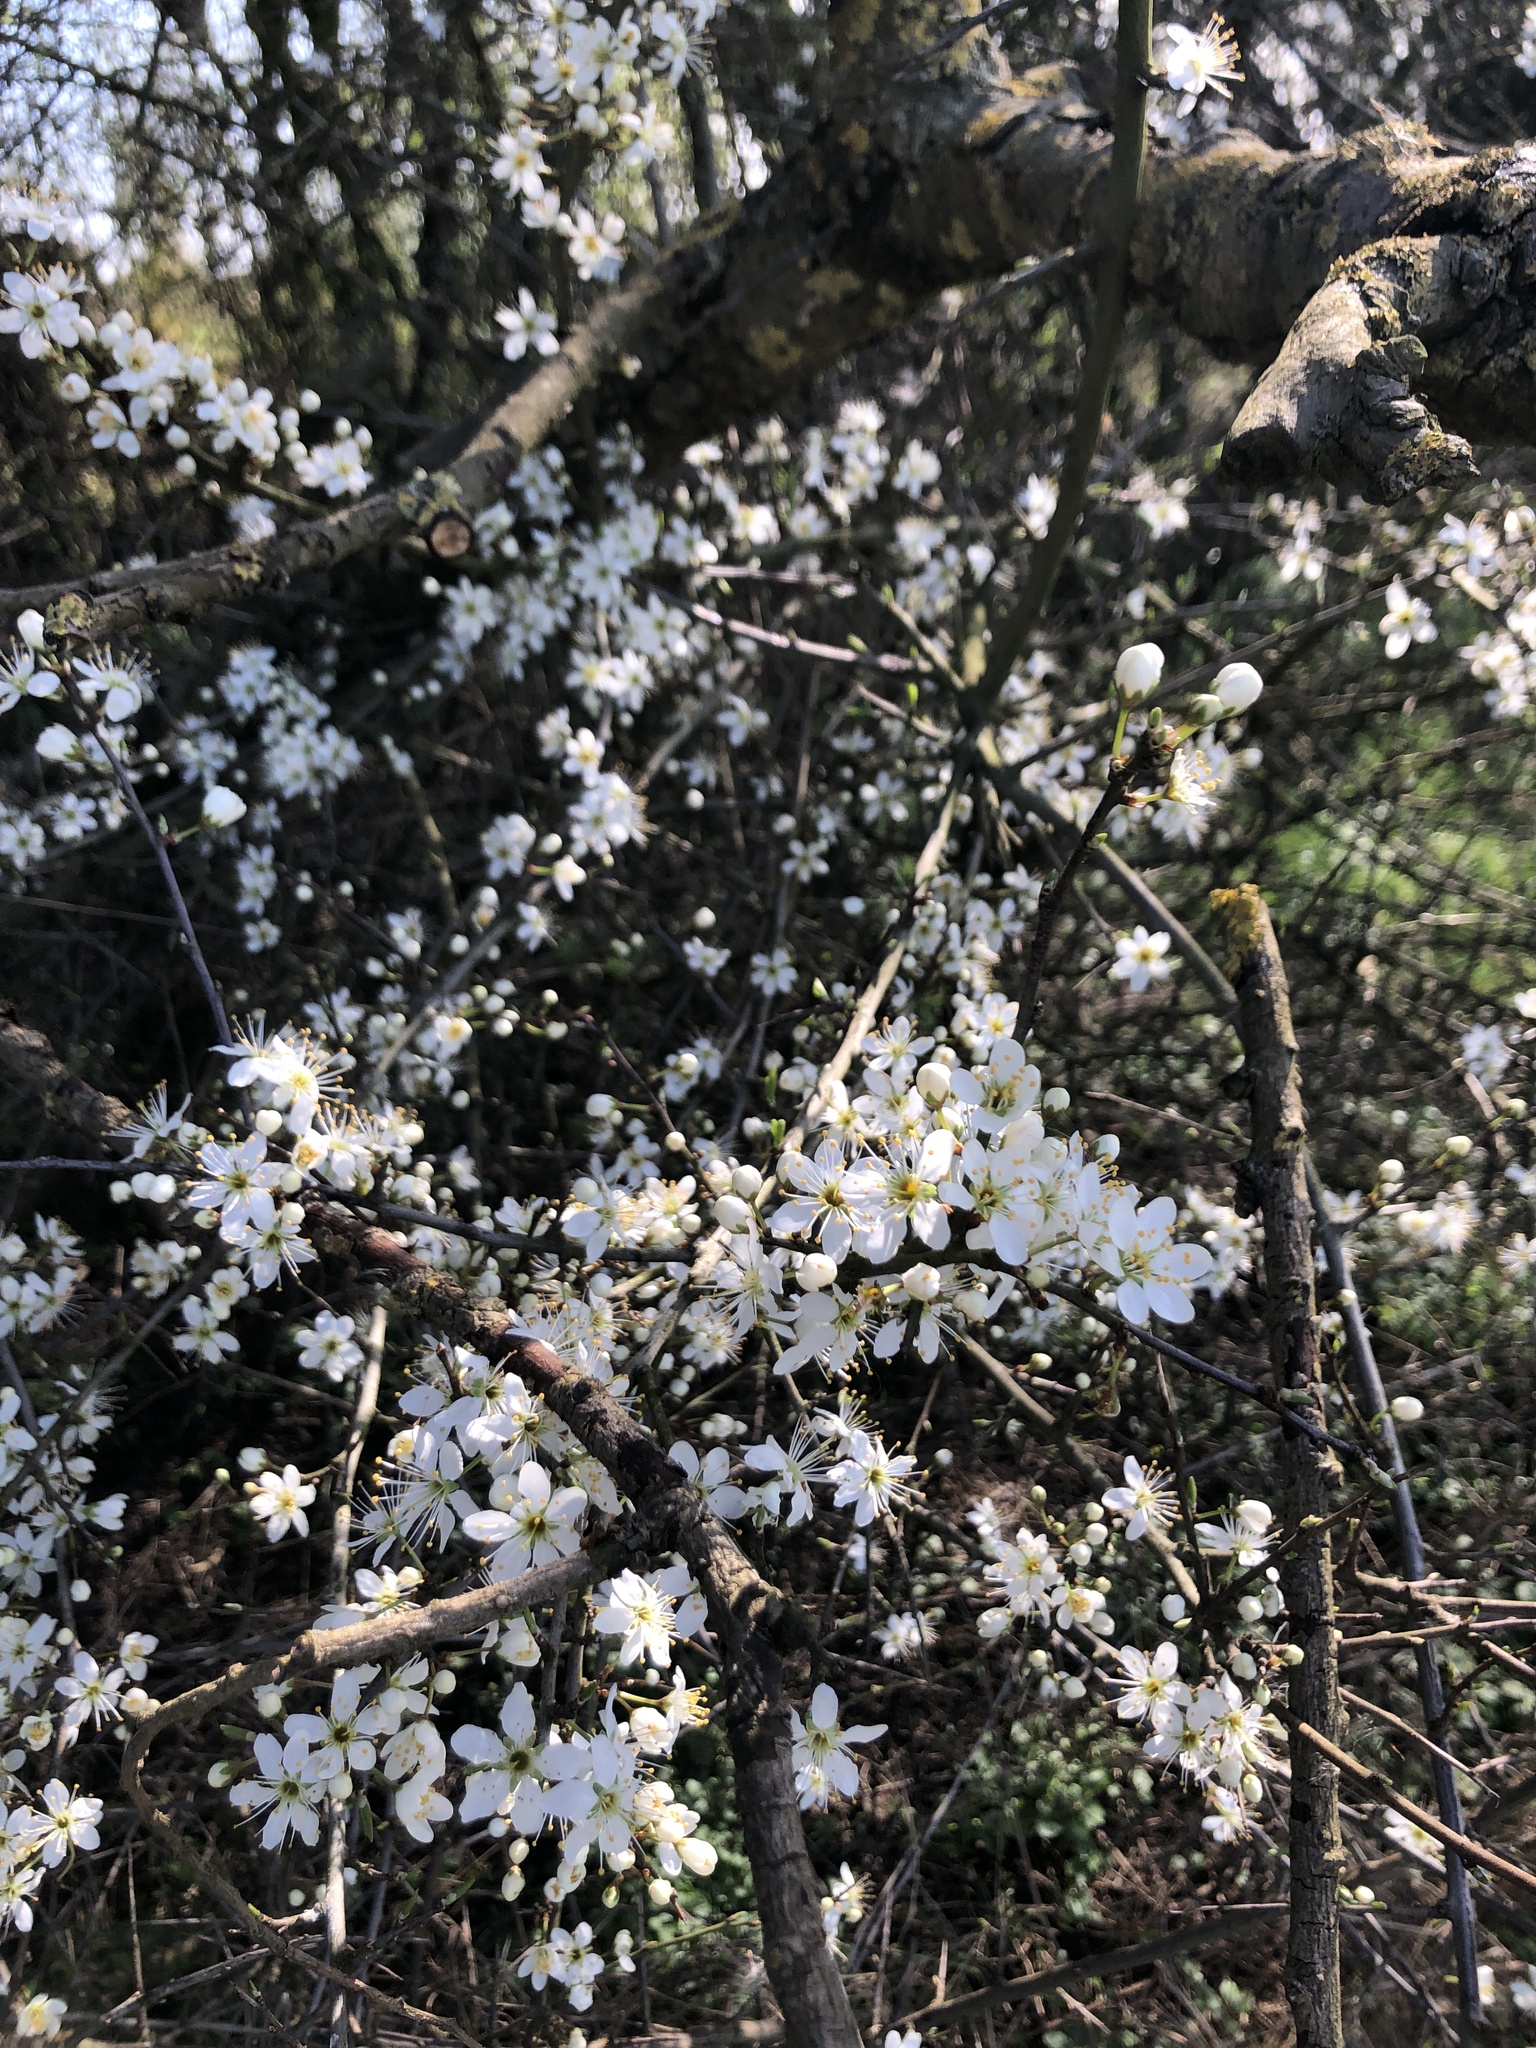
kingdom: Plantae
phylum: Tracheophyta
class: Magnoliopsida
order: Rosales
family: Rosaceae
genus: Prunus
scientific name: Prunus spinosa
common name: Blackthorn
